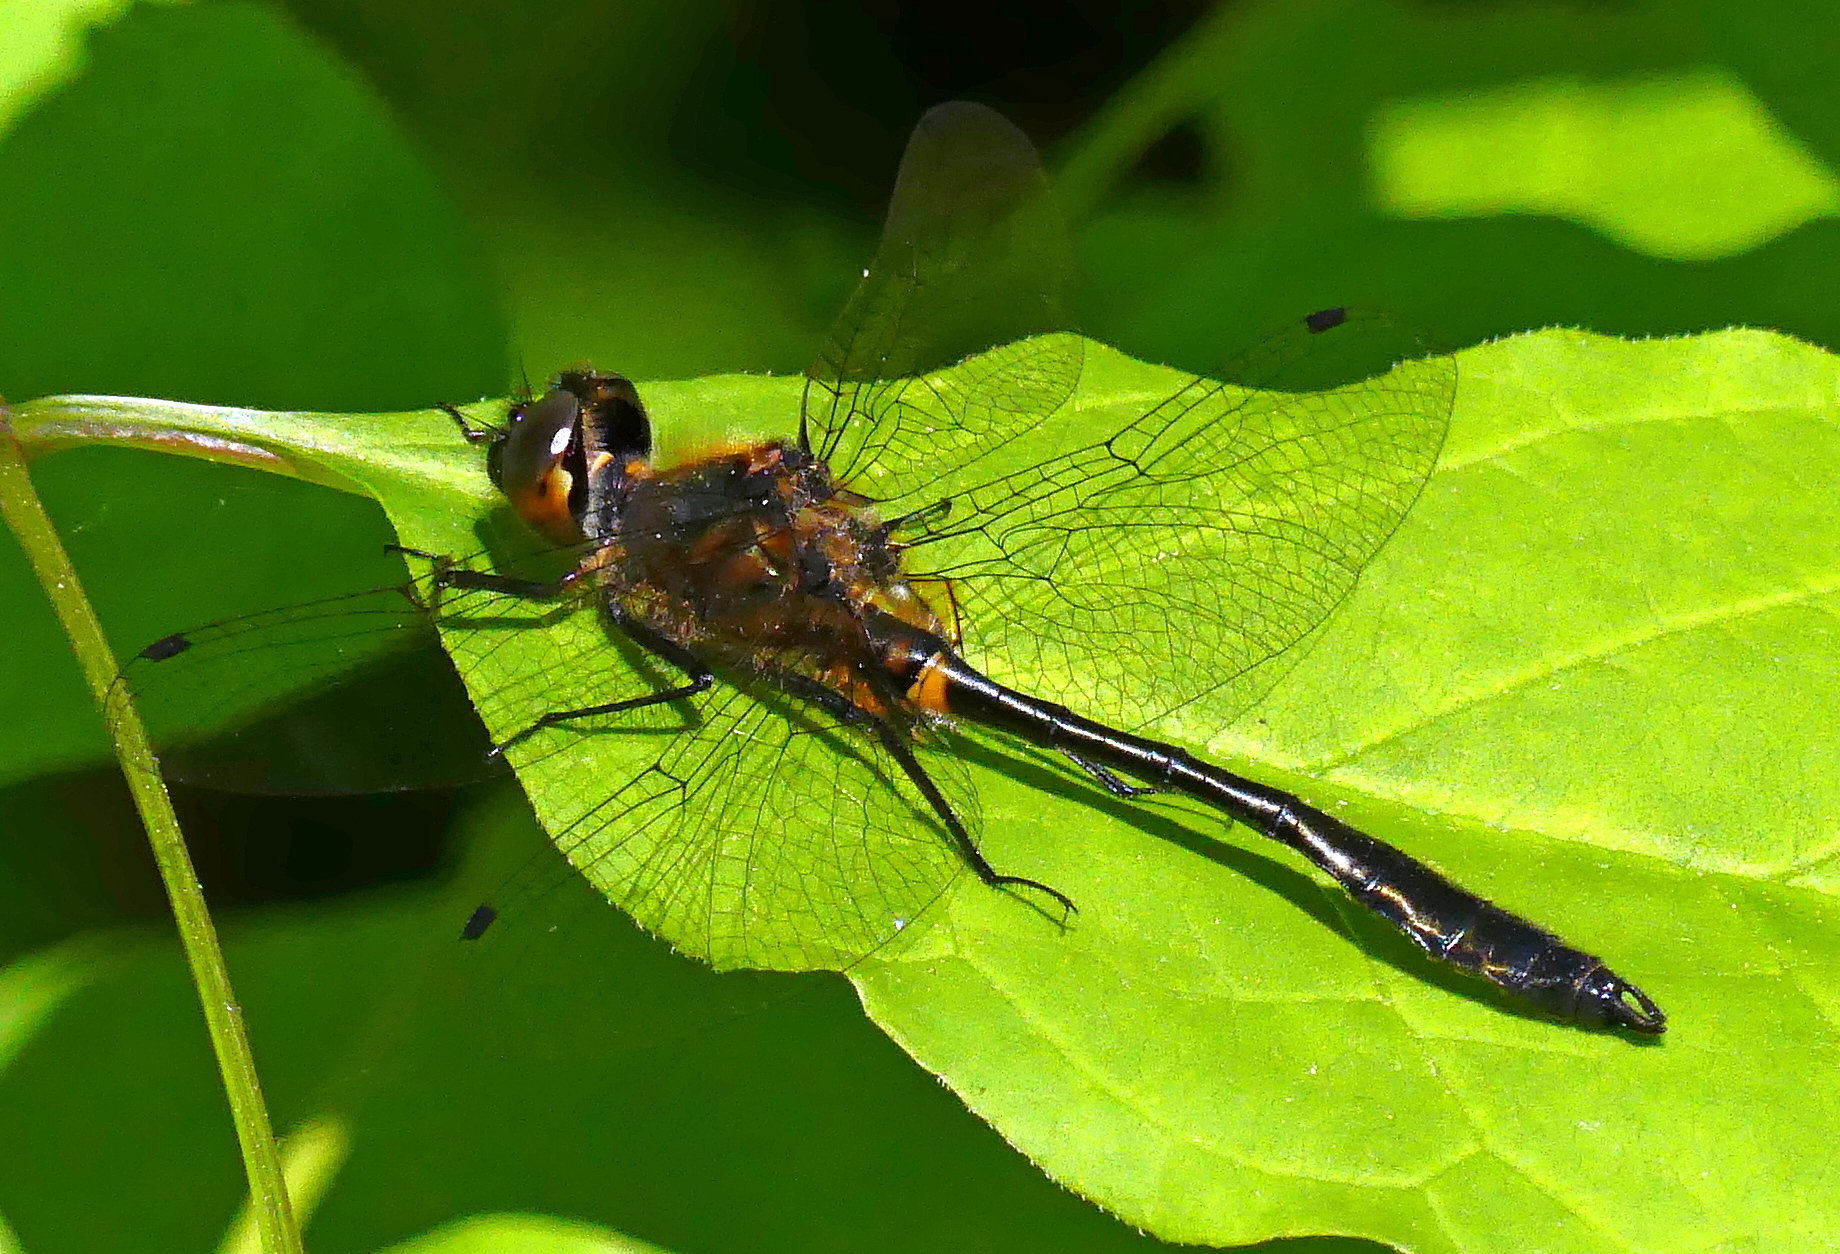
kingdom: Animalia
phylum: Arthropoda
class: Insecta
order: Odonata
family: Corduliidae
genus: Dorocordulia
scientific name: Dorocordulia libera
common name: Racket-tailed emerald
